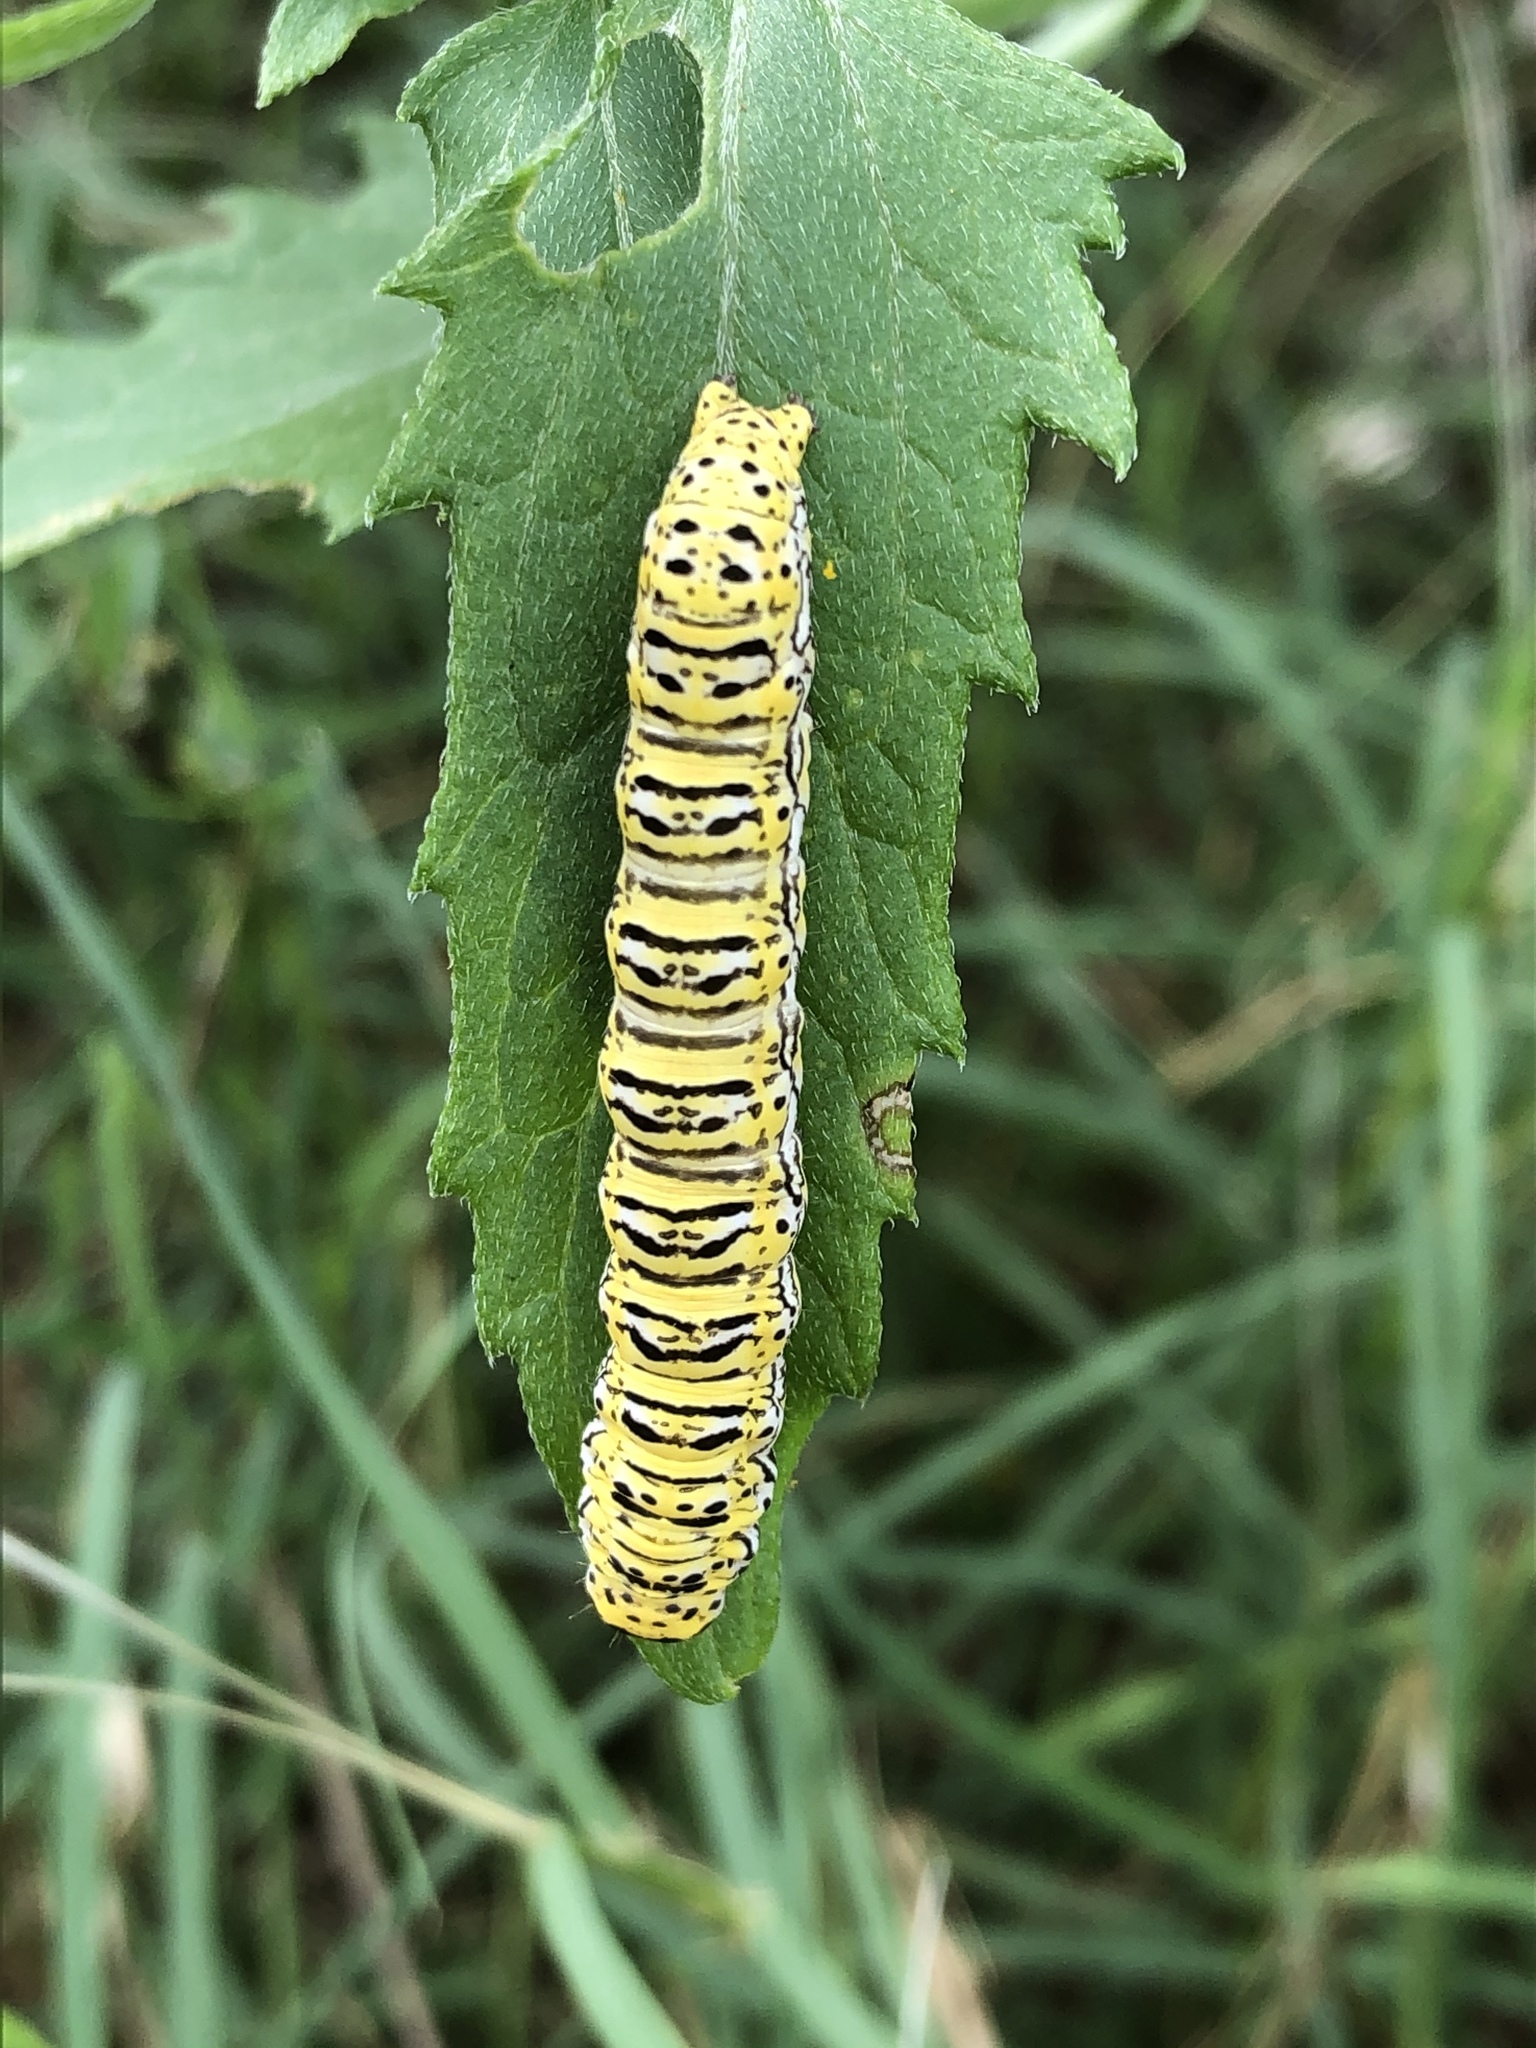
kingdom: Animalia
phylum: Arthropoda
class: Insecta
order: Lepidoptera
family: Noctuidae
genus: Basilodes
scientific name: Basilodes chrysopis
